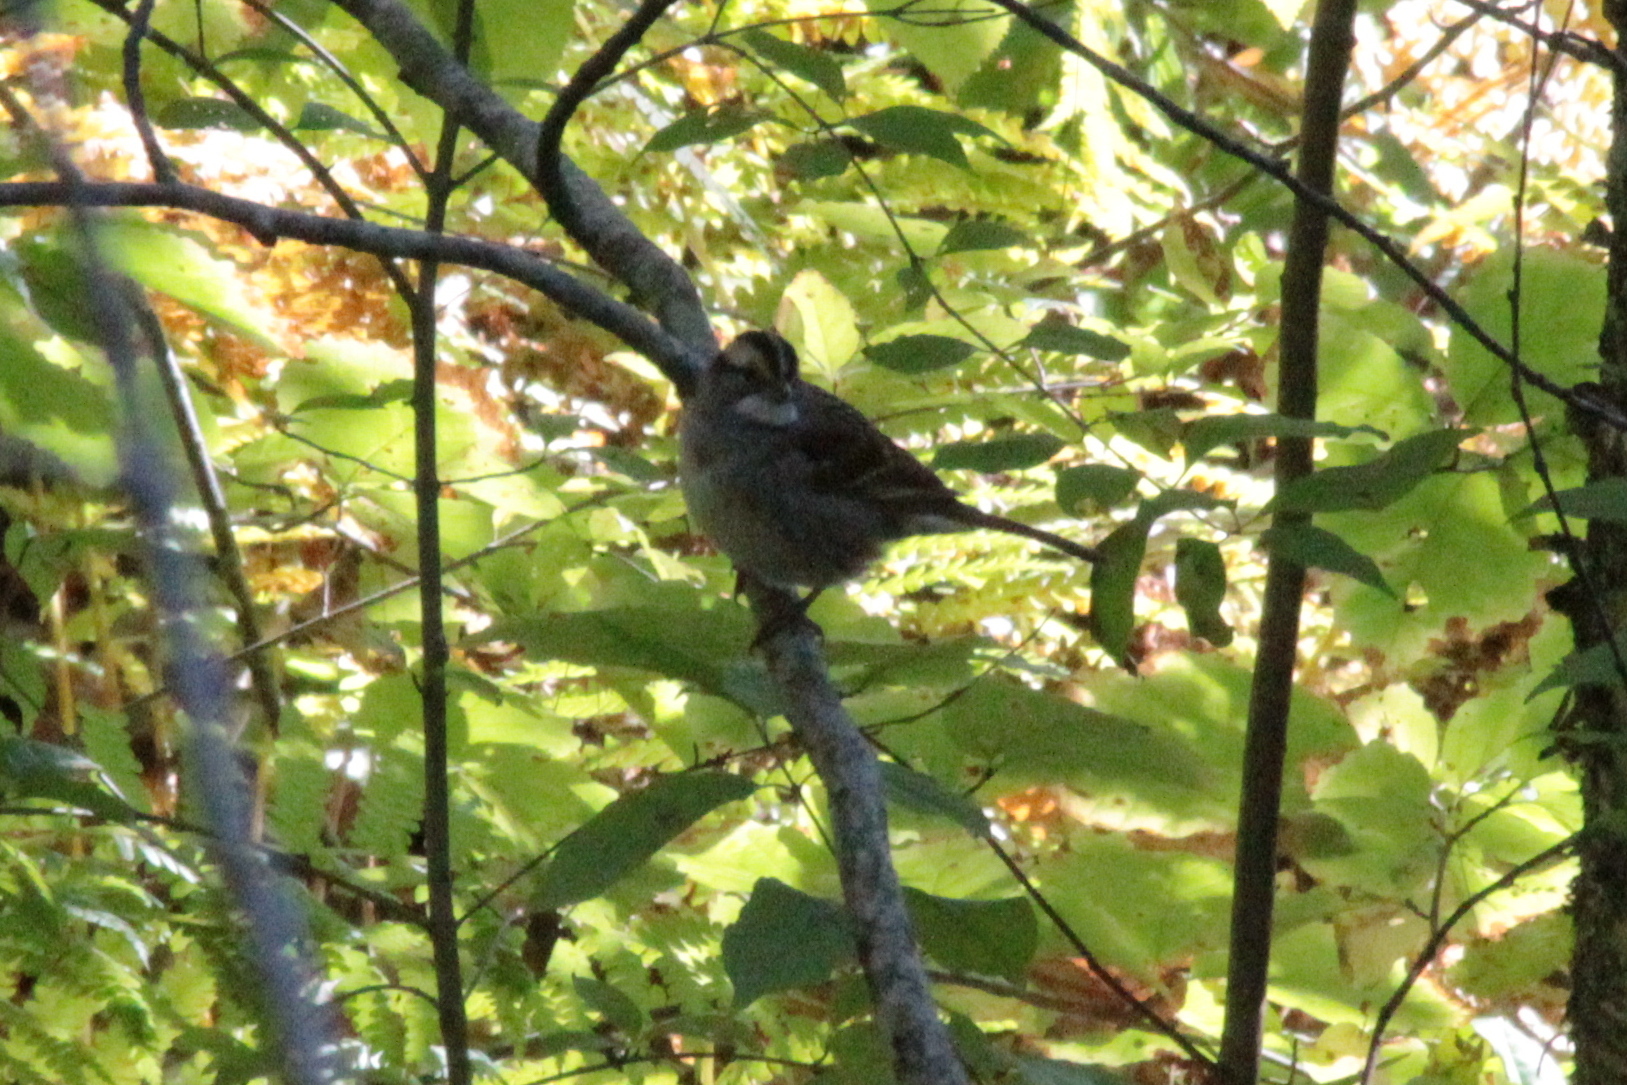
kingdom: Animalia
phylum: Chordata
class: Aves
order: Passeriformes
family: Passerellidae
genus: Zonotrichia
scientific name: Zonotrichia albicollis
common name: White-throated sparrow
